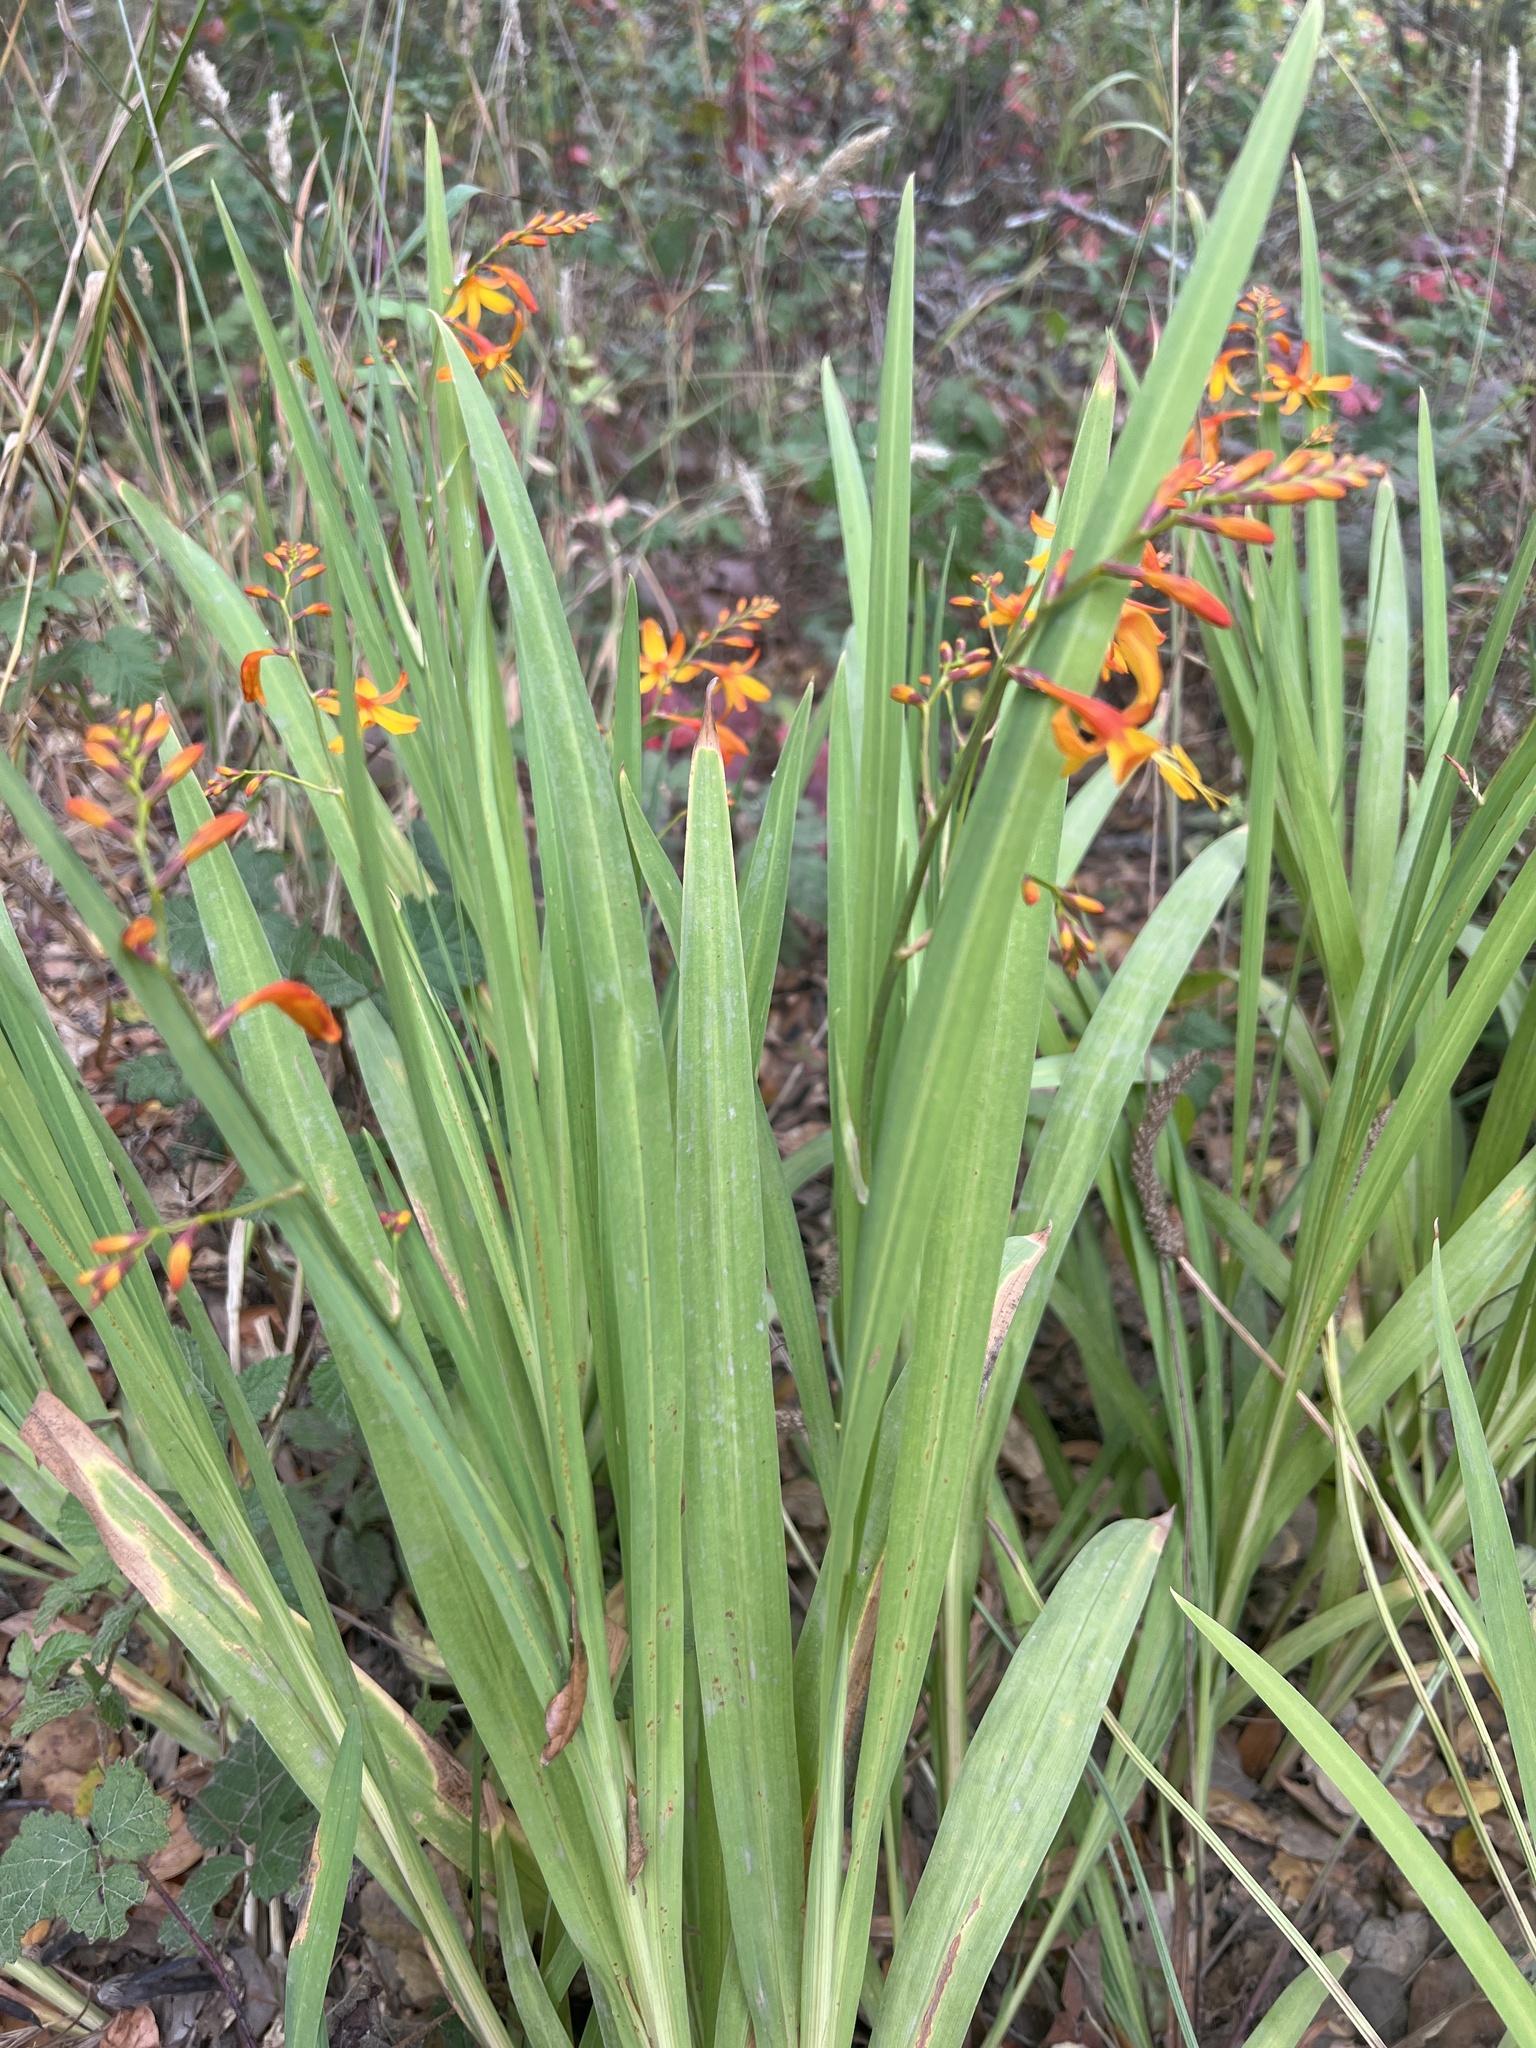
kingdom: Plantae
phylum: Tracheophyta
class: Liliopsida
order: Asparagales
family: Iridaceae
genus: Crocosmia
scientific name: Crocosmia crocosmiiflora
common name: Montbretia
